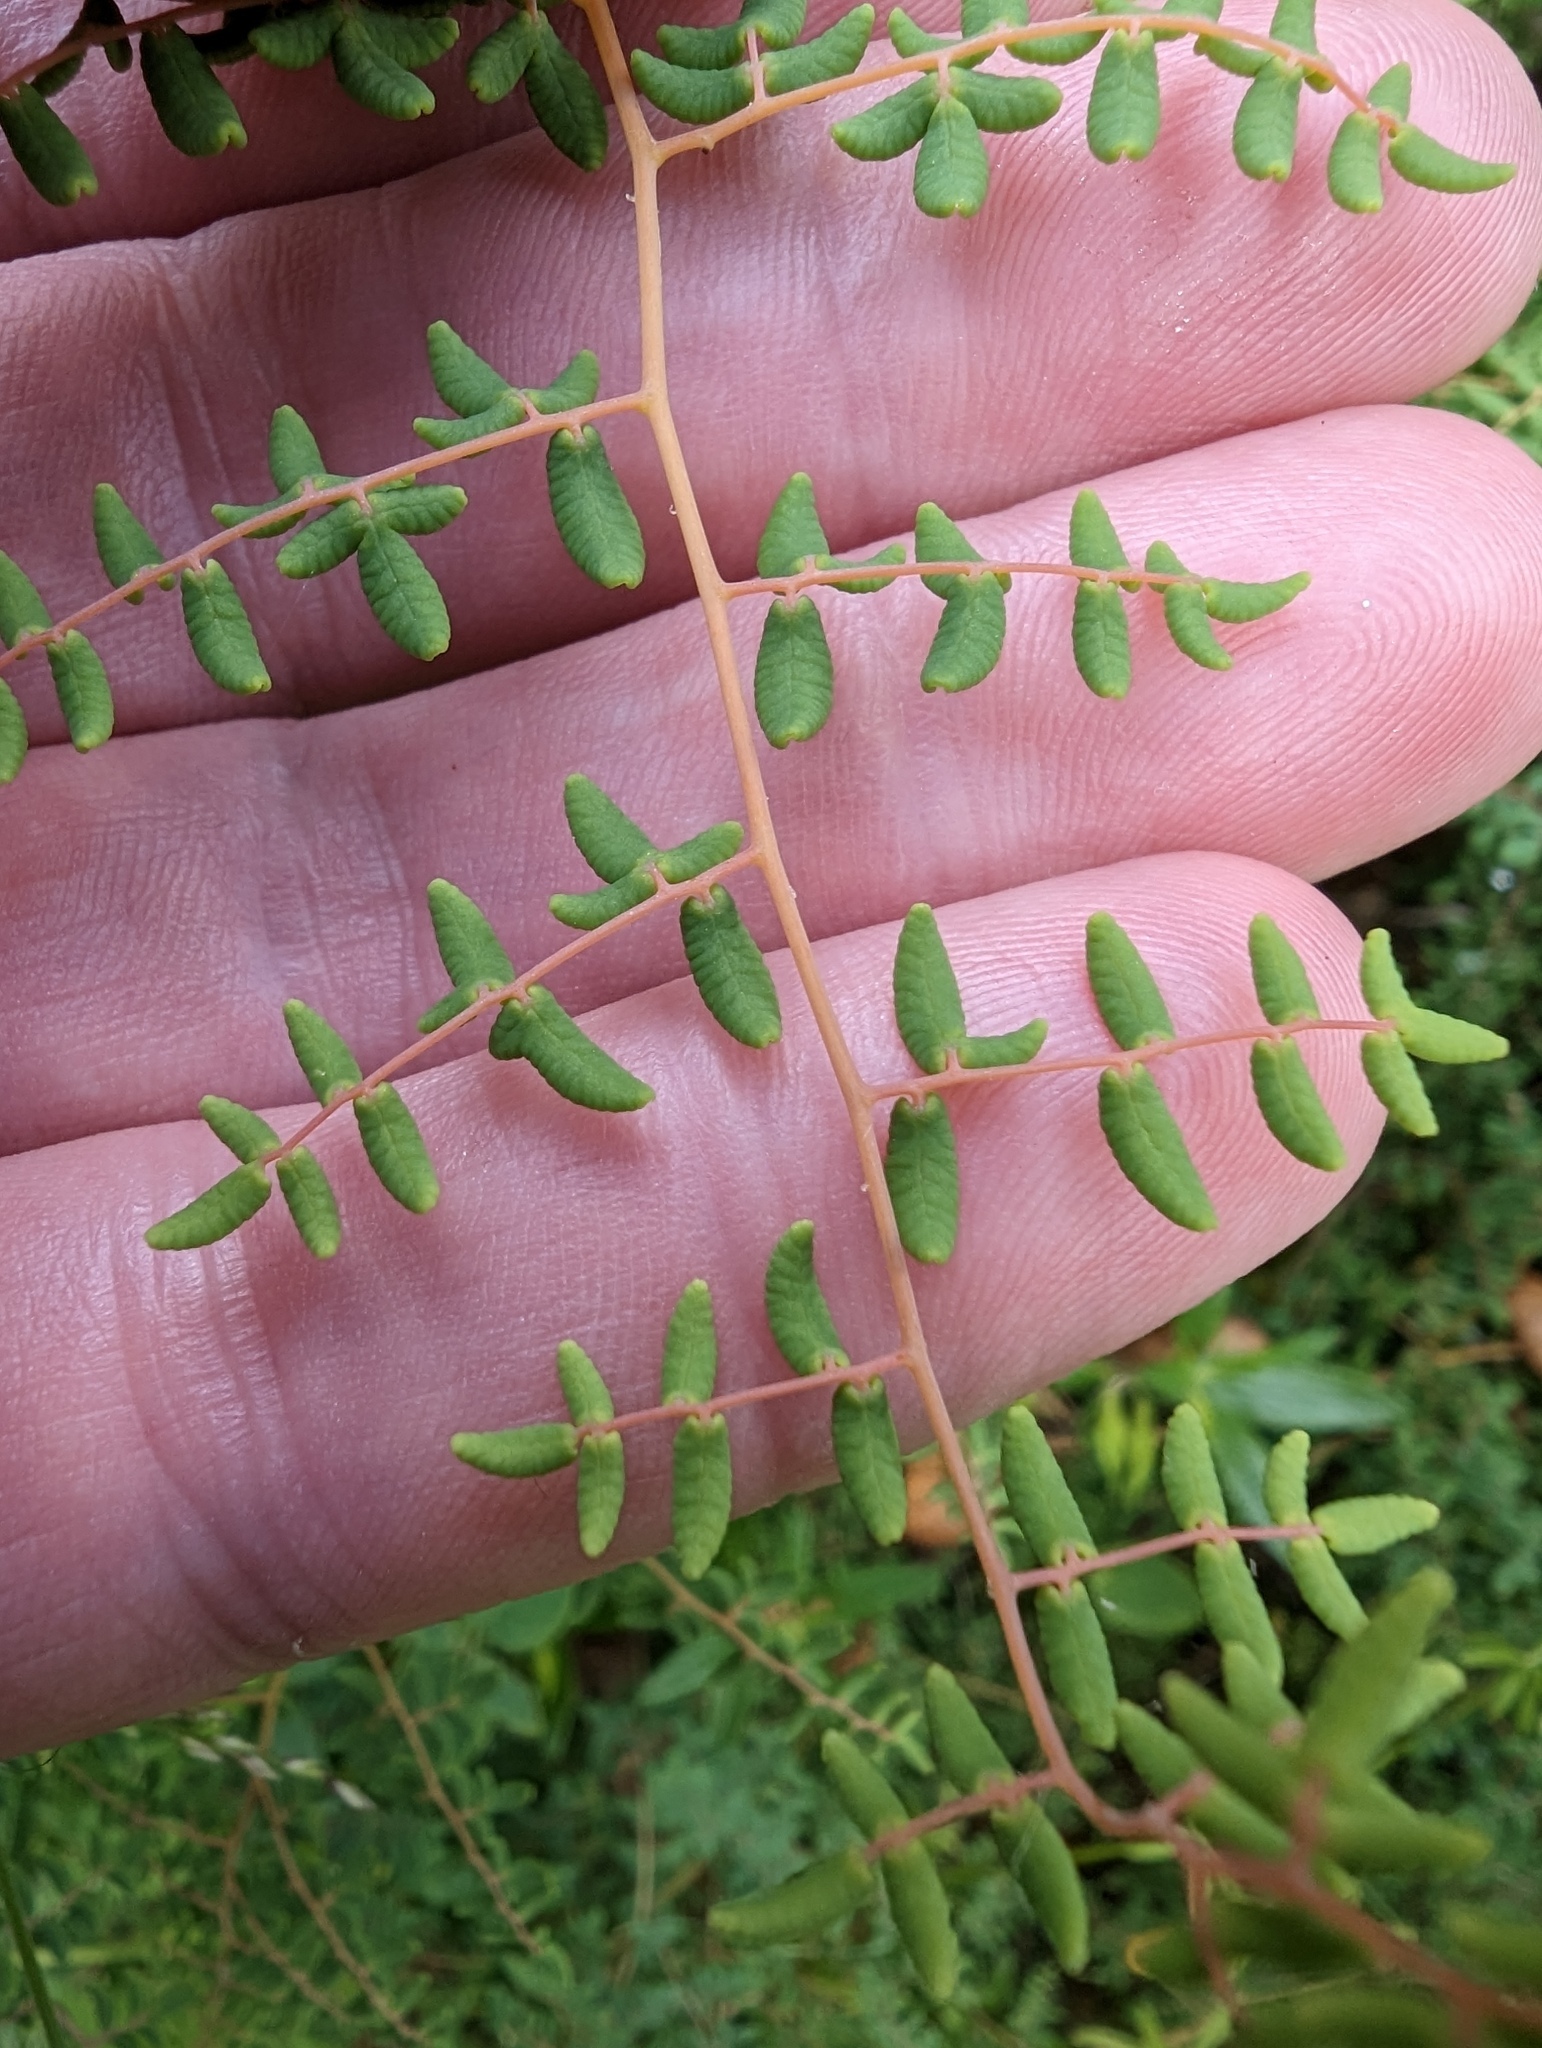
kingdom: Plantae
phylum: Tracheophyta
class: Polypodiopsida
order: Polypodiales
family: Pteridaceae
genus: Pellaea
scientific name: Pellaea andromedifolia
